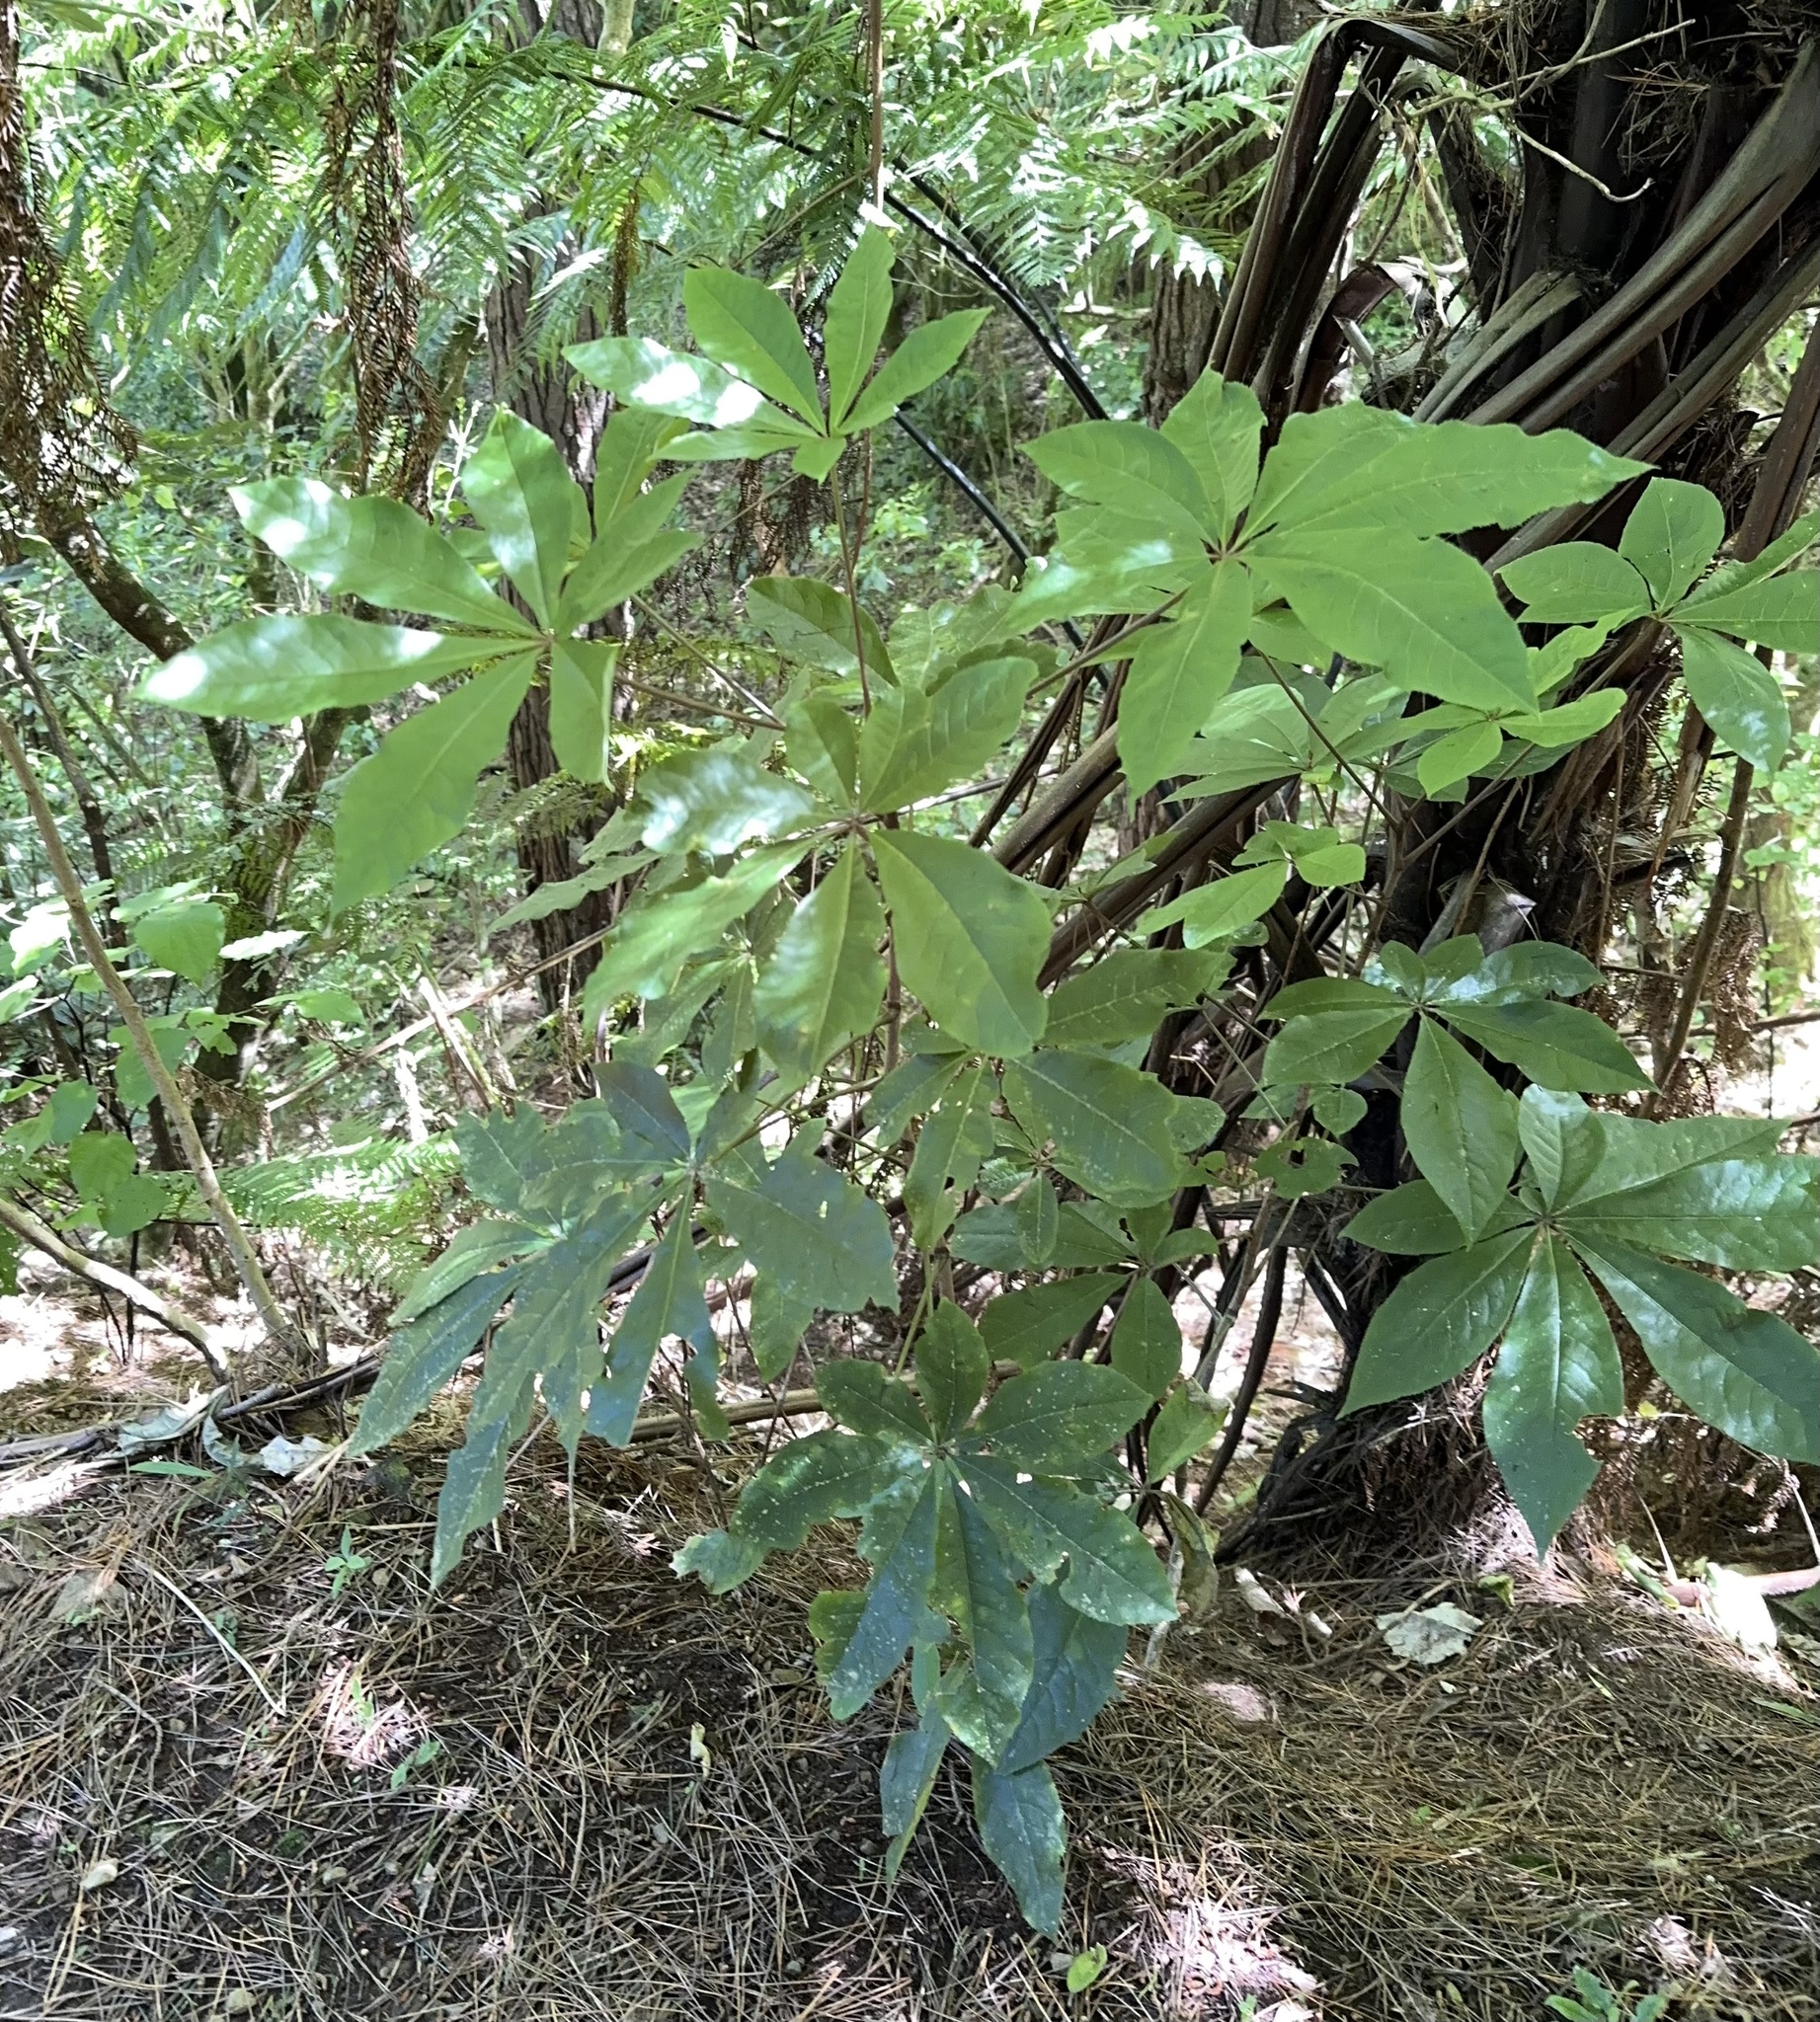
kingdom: Plantae
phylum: Tracheophyta
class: Magnoliopsida
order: Apiales
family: Araliaceae
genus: Schefflera
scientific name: Schefflera digitata
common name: Pate
